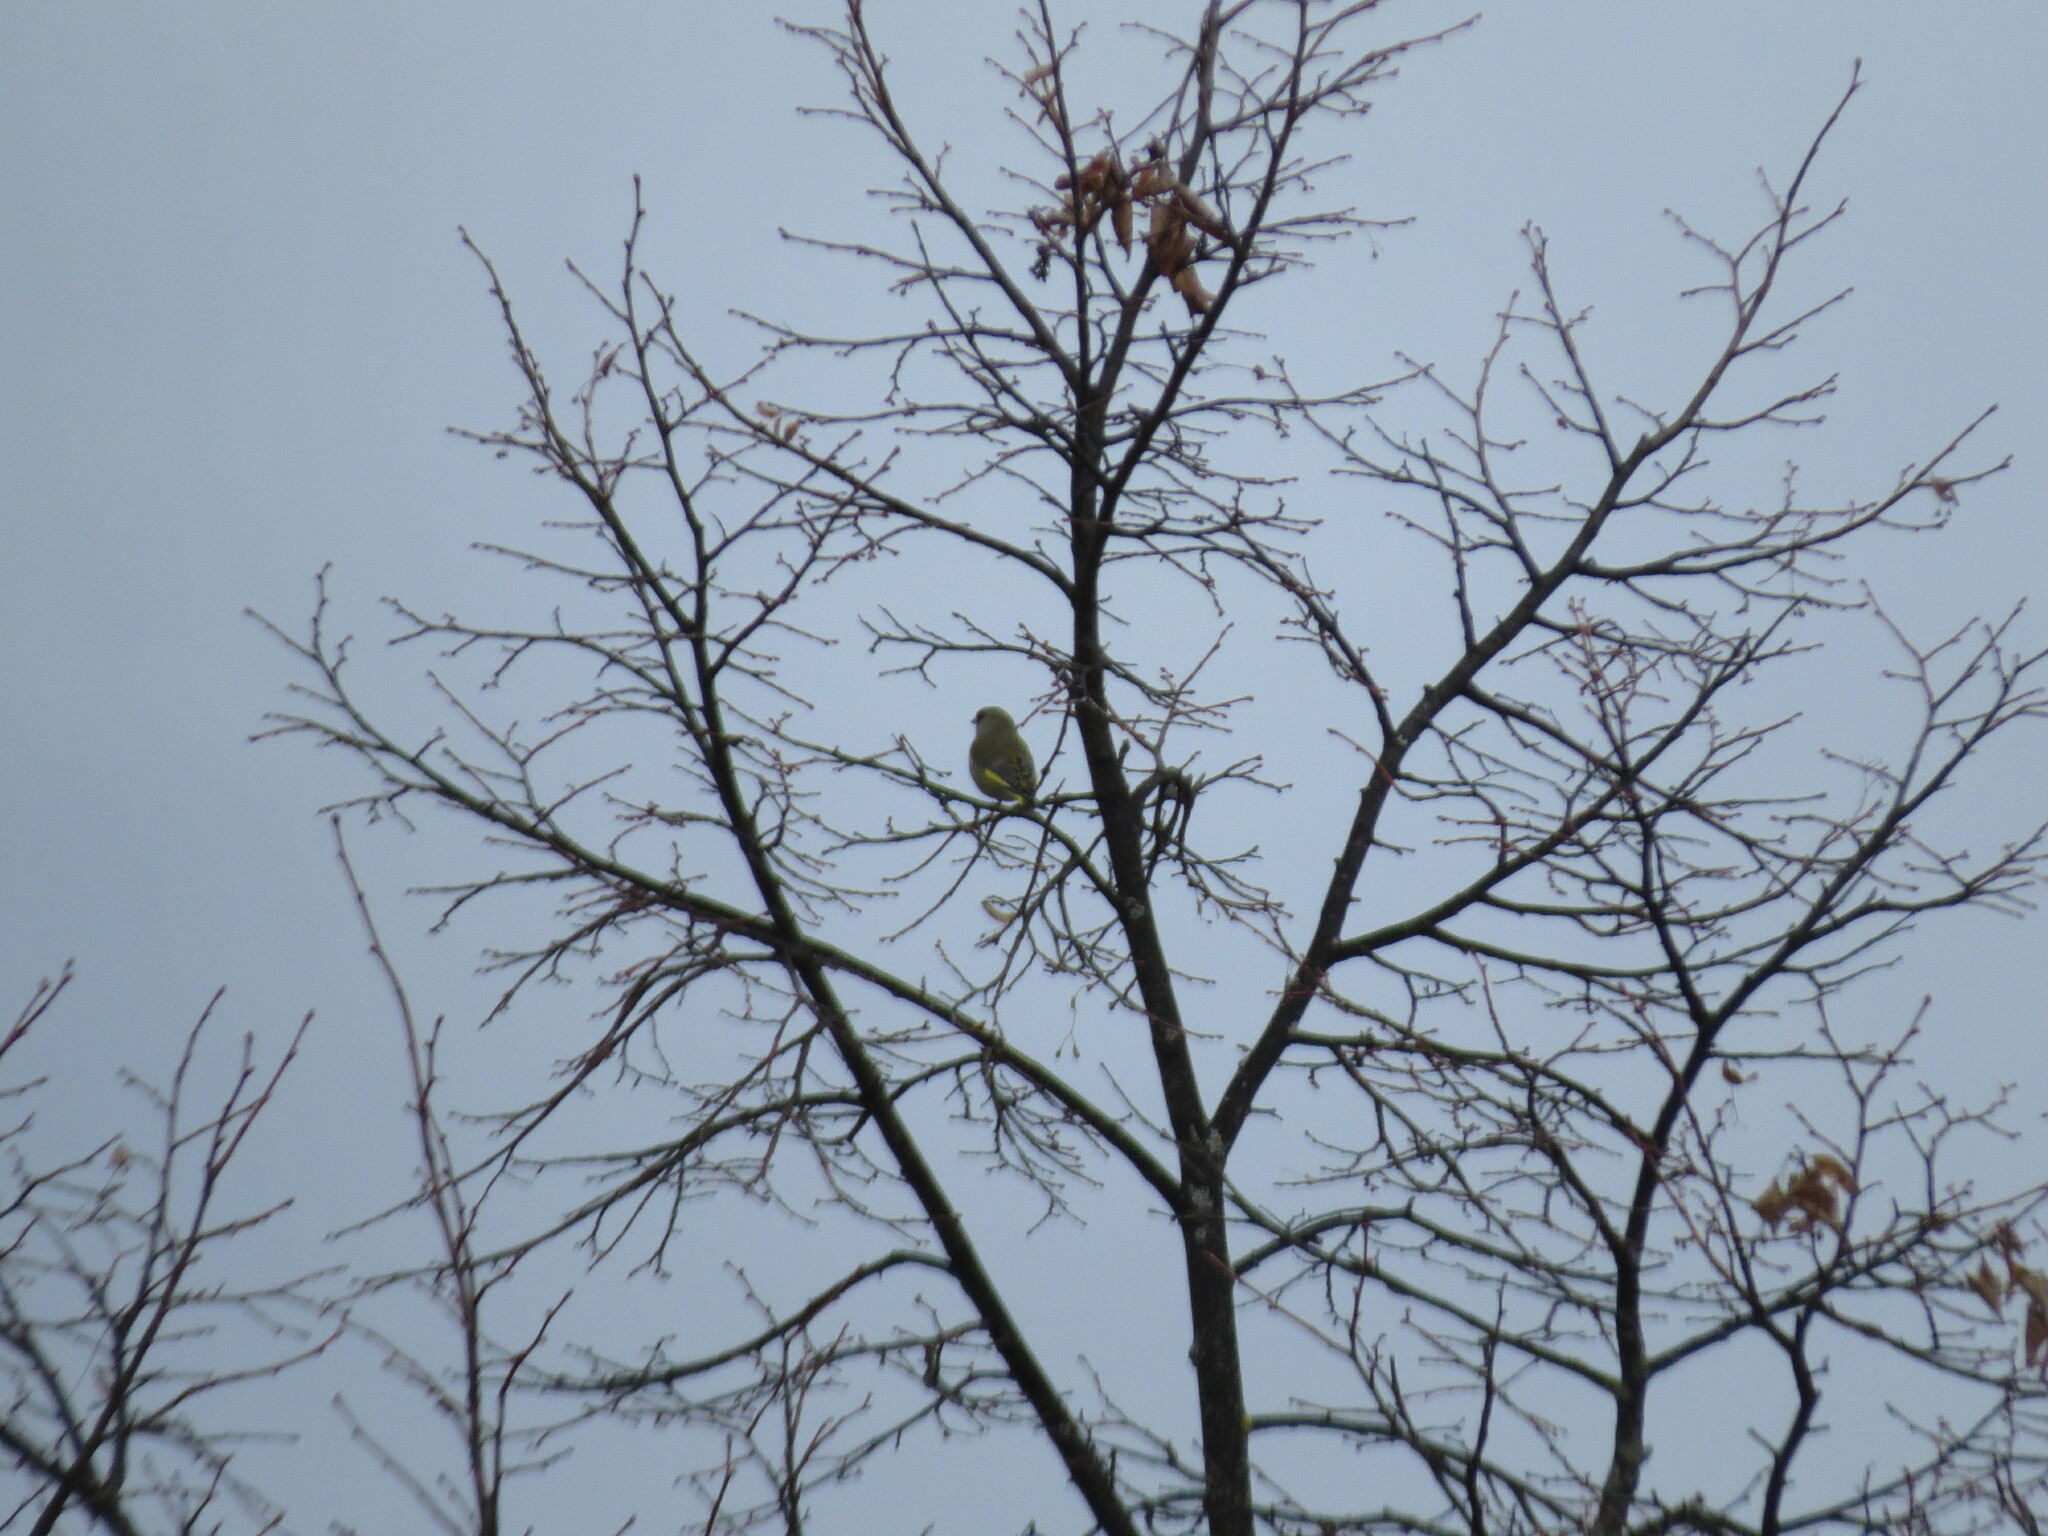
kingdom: Plantae
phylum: Tracheophyta
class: Liliopsida
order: Poales
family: Poaceae
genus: Chloris
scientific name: Chloris chloris
